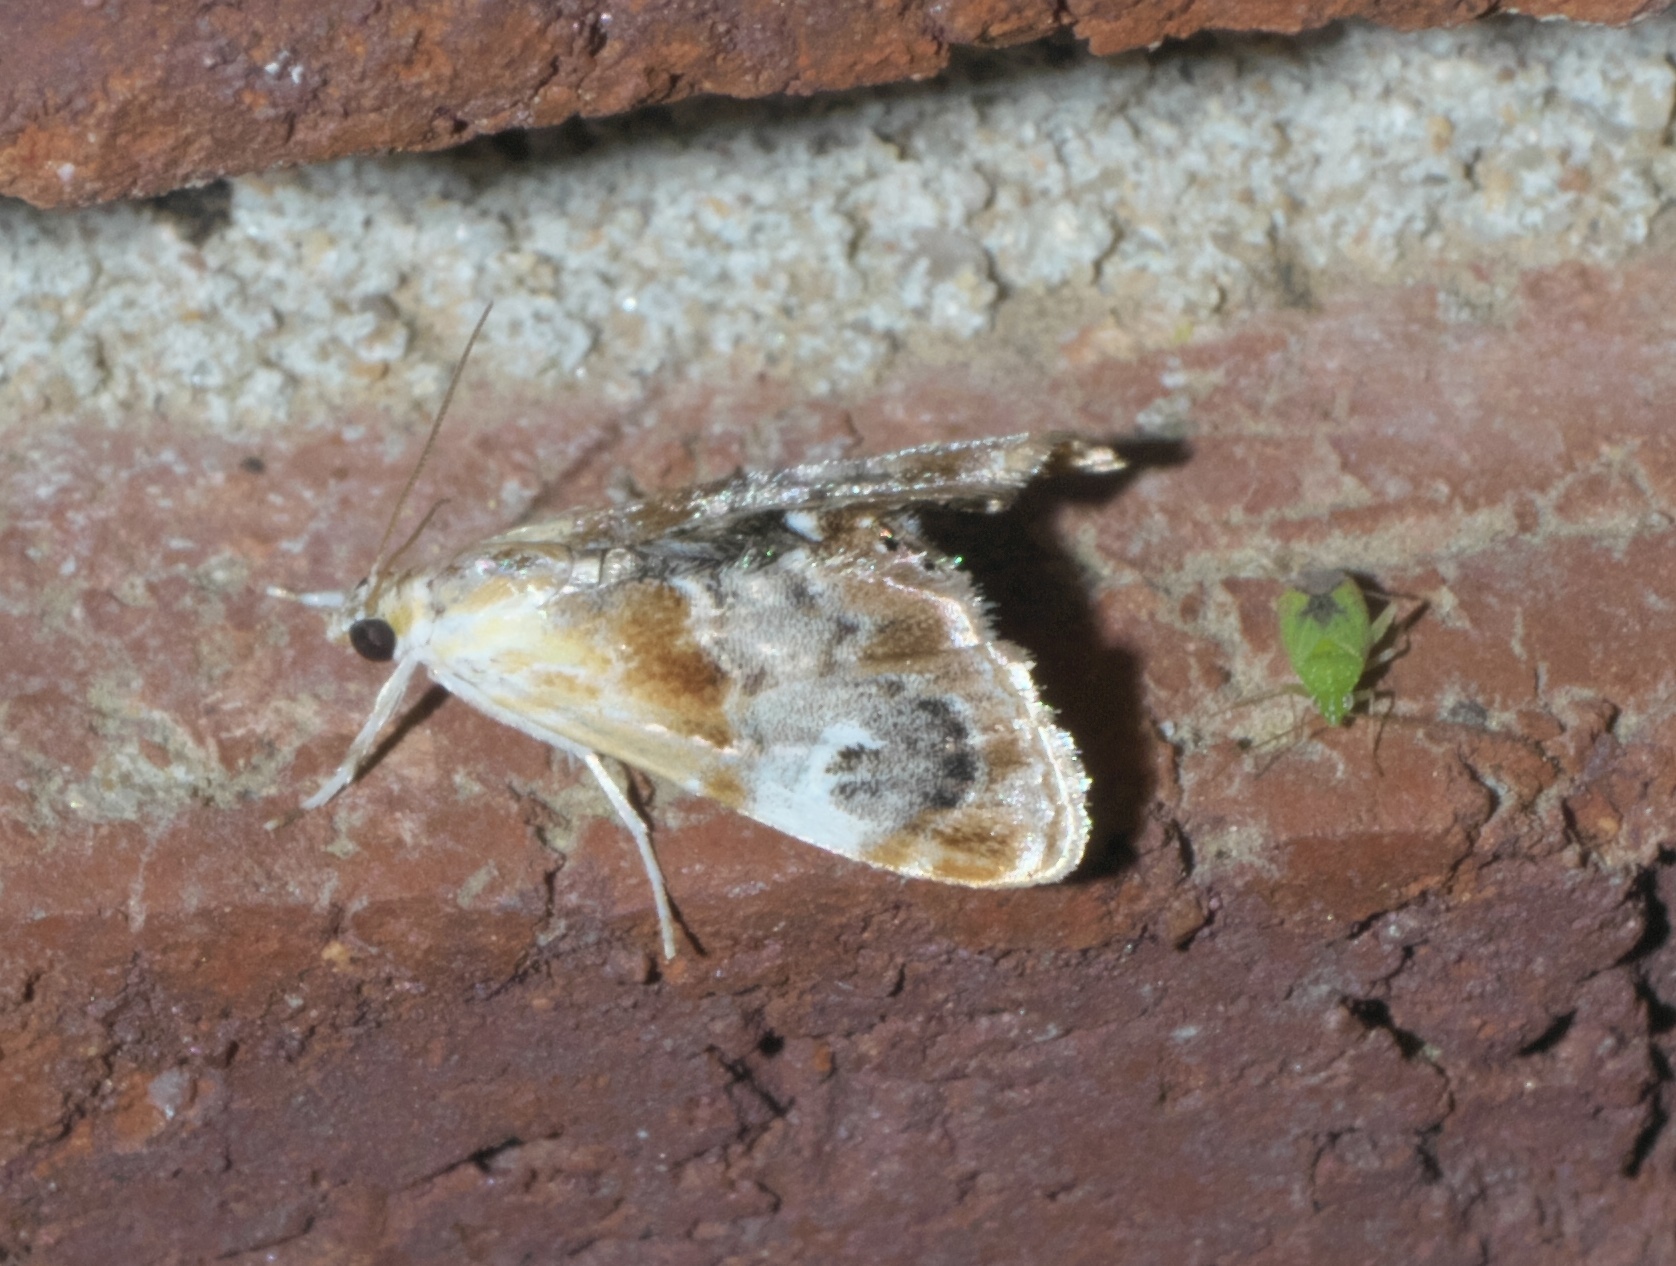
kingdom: Animalia
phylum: Arthropoda
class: Insecta
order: Lepidoptera
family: Crambidae
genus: Dicymolomia
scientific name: Dicymolomia julianalis
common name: Julia's dicymolomia moth
